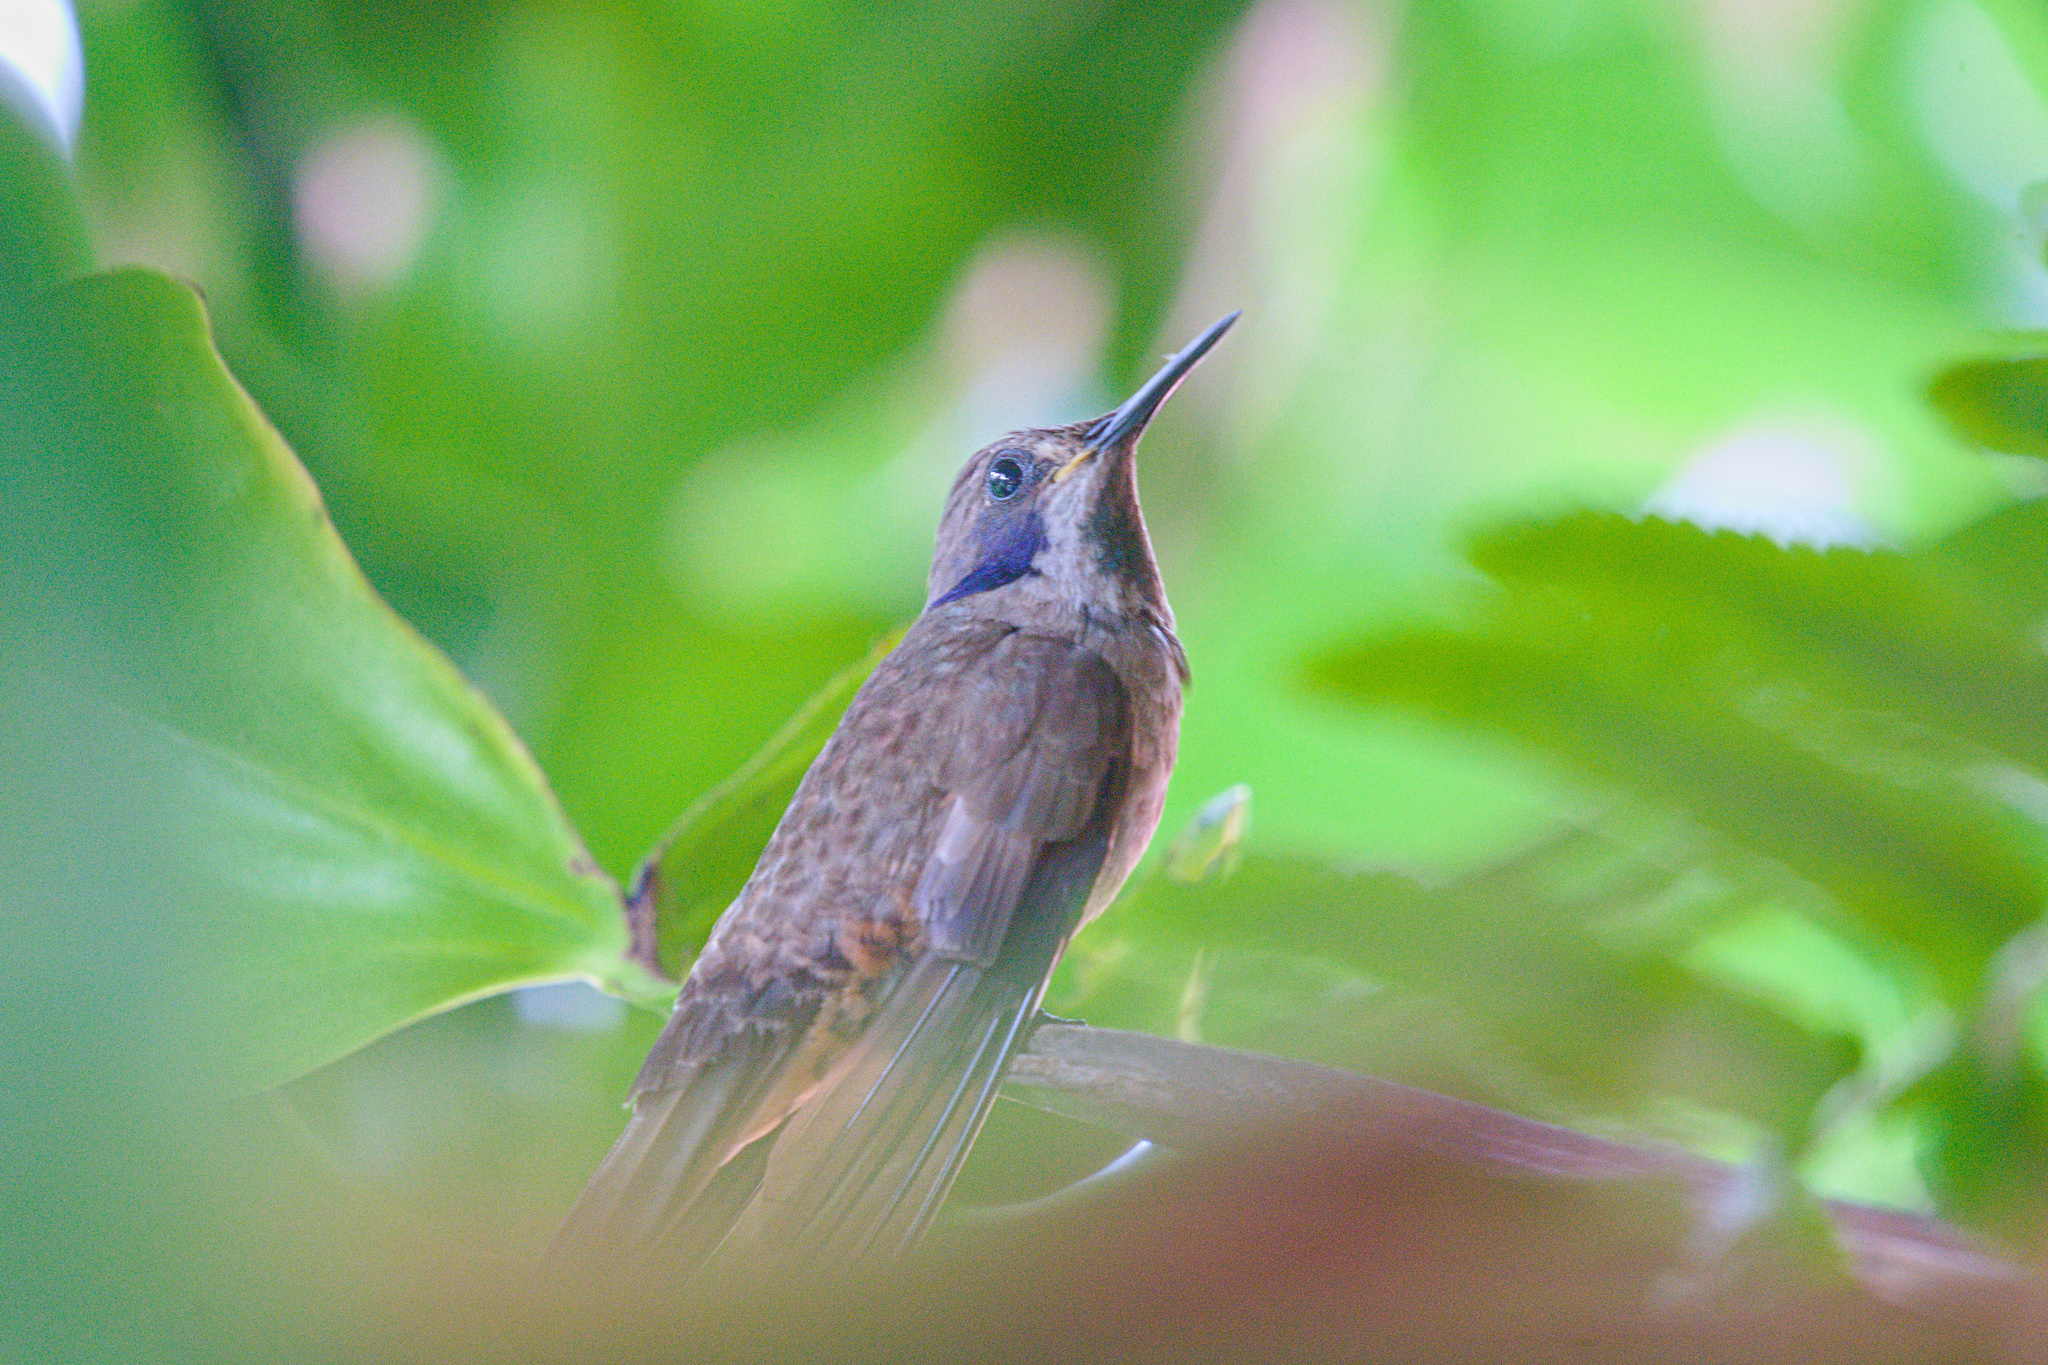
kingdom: Animalia
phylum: Chordata
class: Aves
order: Apodiformes
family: Trochilidae
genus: Colibri
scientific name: Colibri delphinae
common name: Brown violetear
